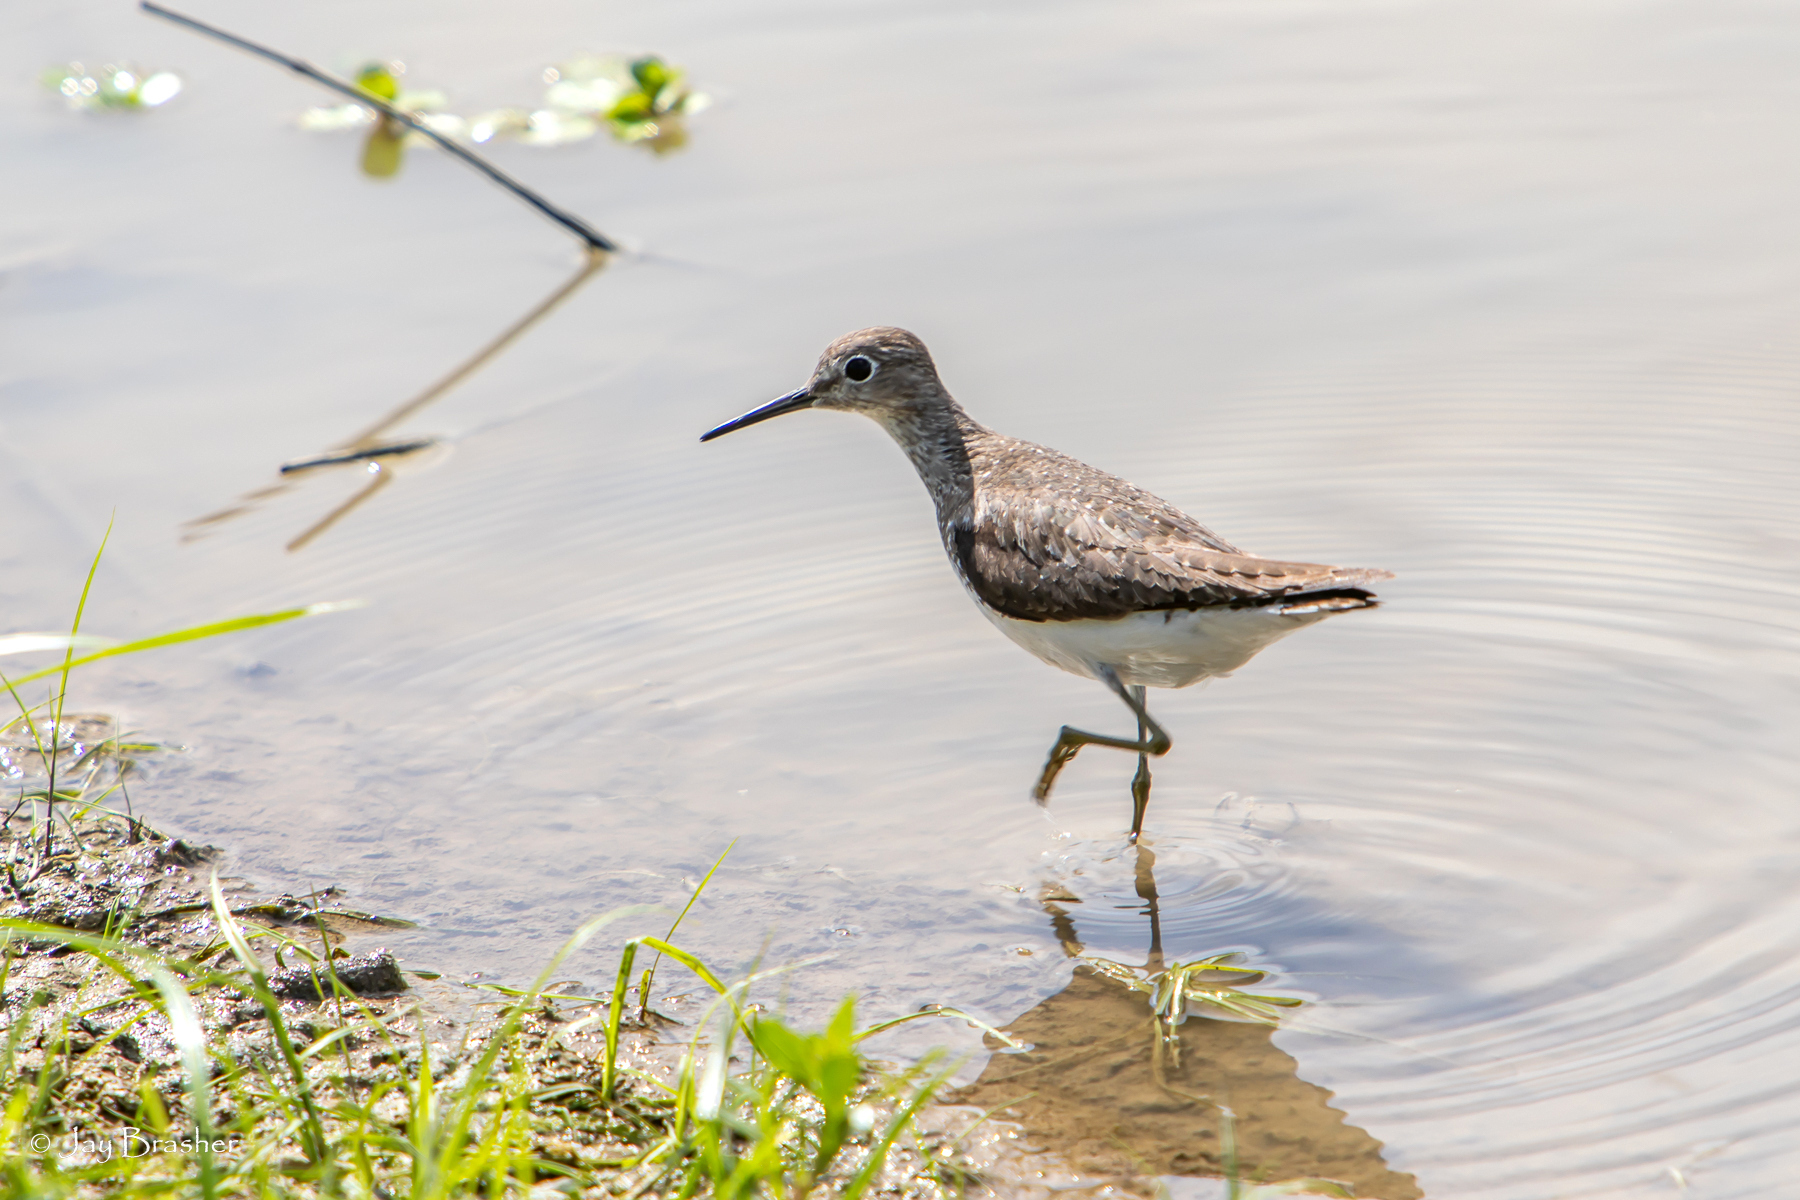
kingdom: Animalia
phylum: Chordata
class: Aves
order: Charadriiformes
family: Scolopacidae
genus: Tringa
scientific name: Tringa solitaria
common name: Solitary sandpiper
